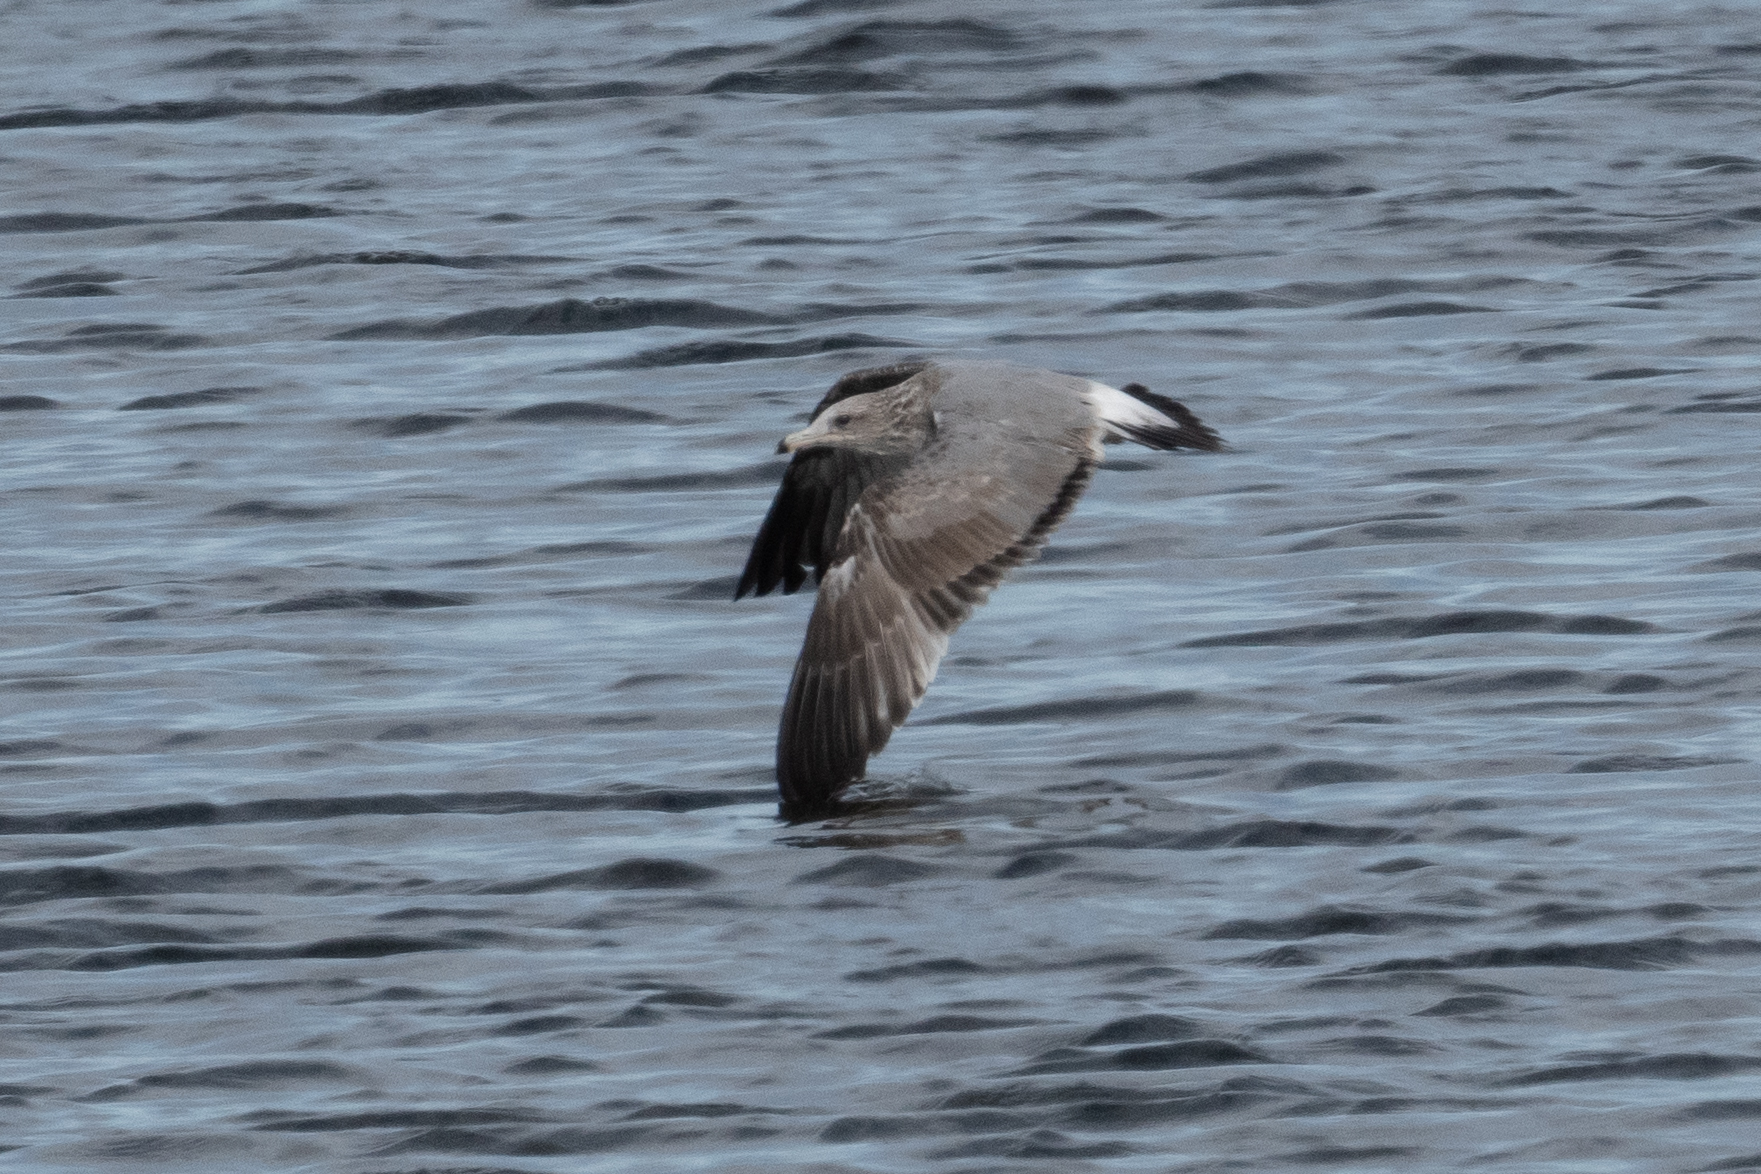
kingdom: Animalia
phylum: Chordata
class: Aves
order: Charadriiformes
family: Laridae
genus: Larus
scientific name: Larus californicus
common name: California gull
